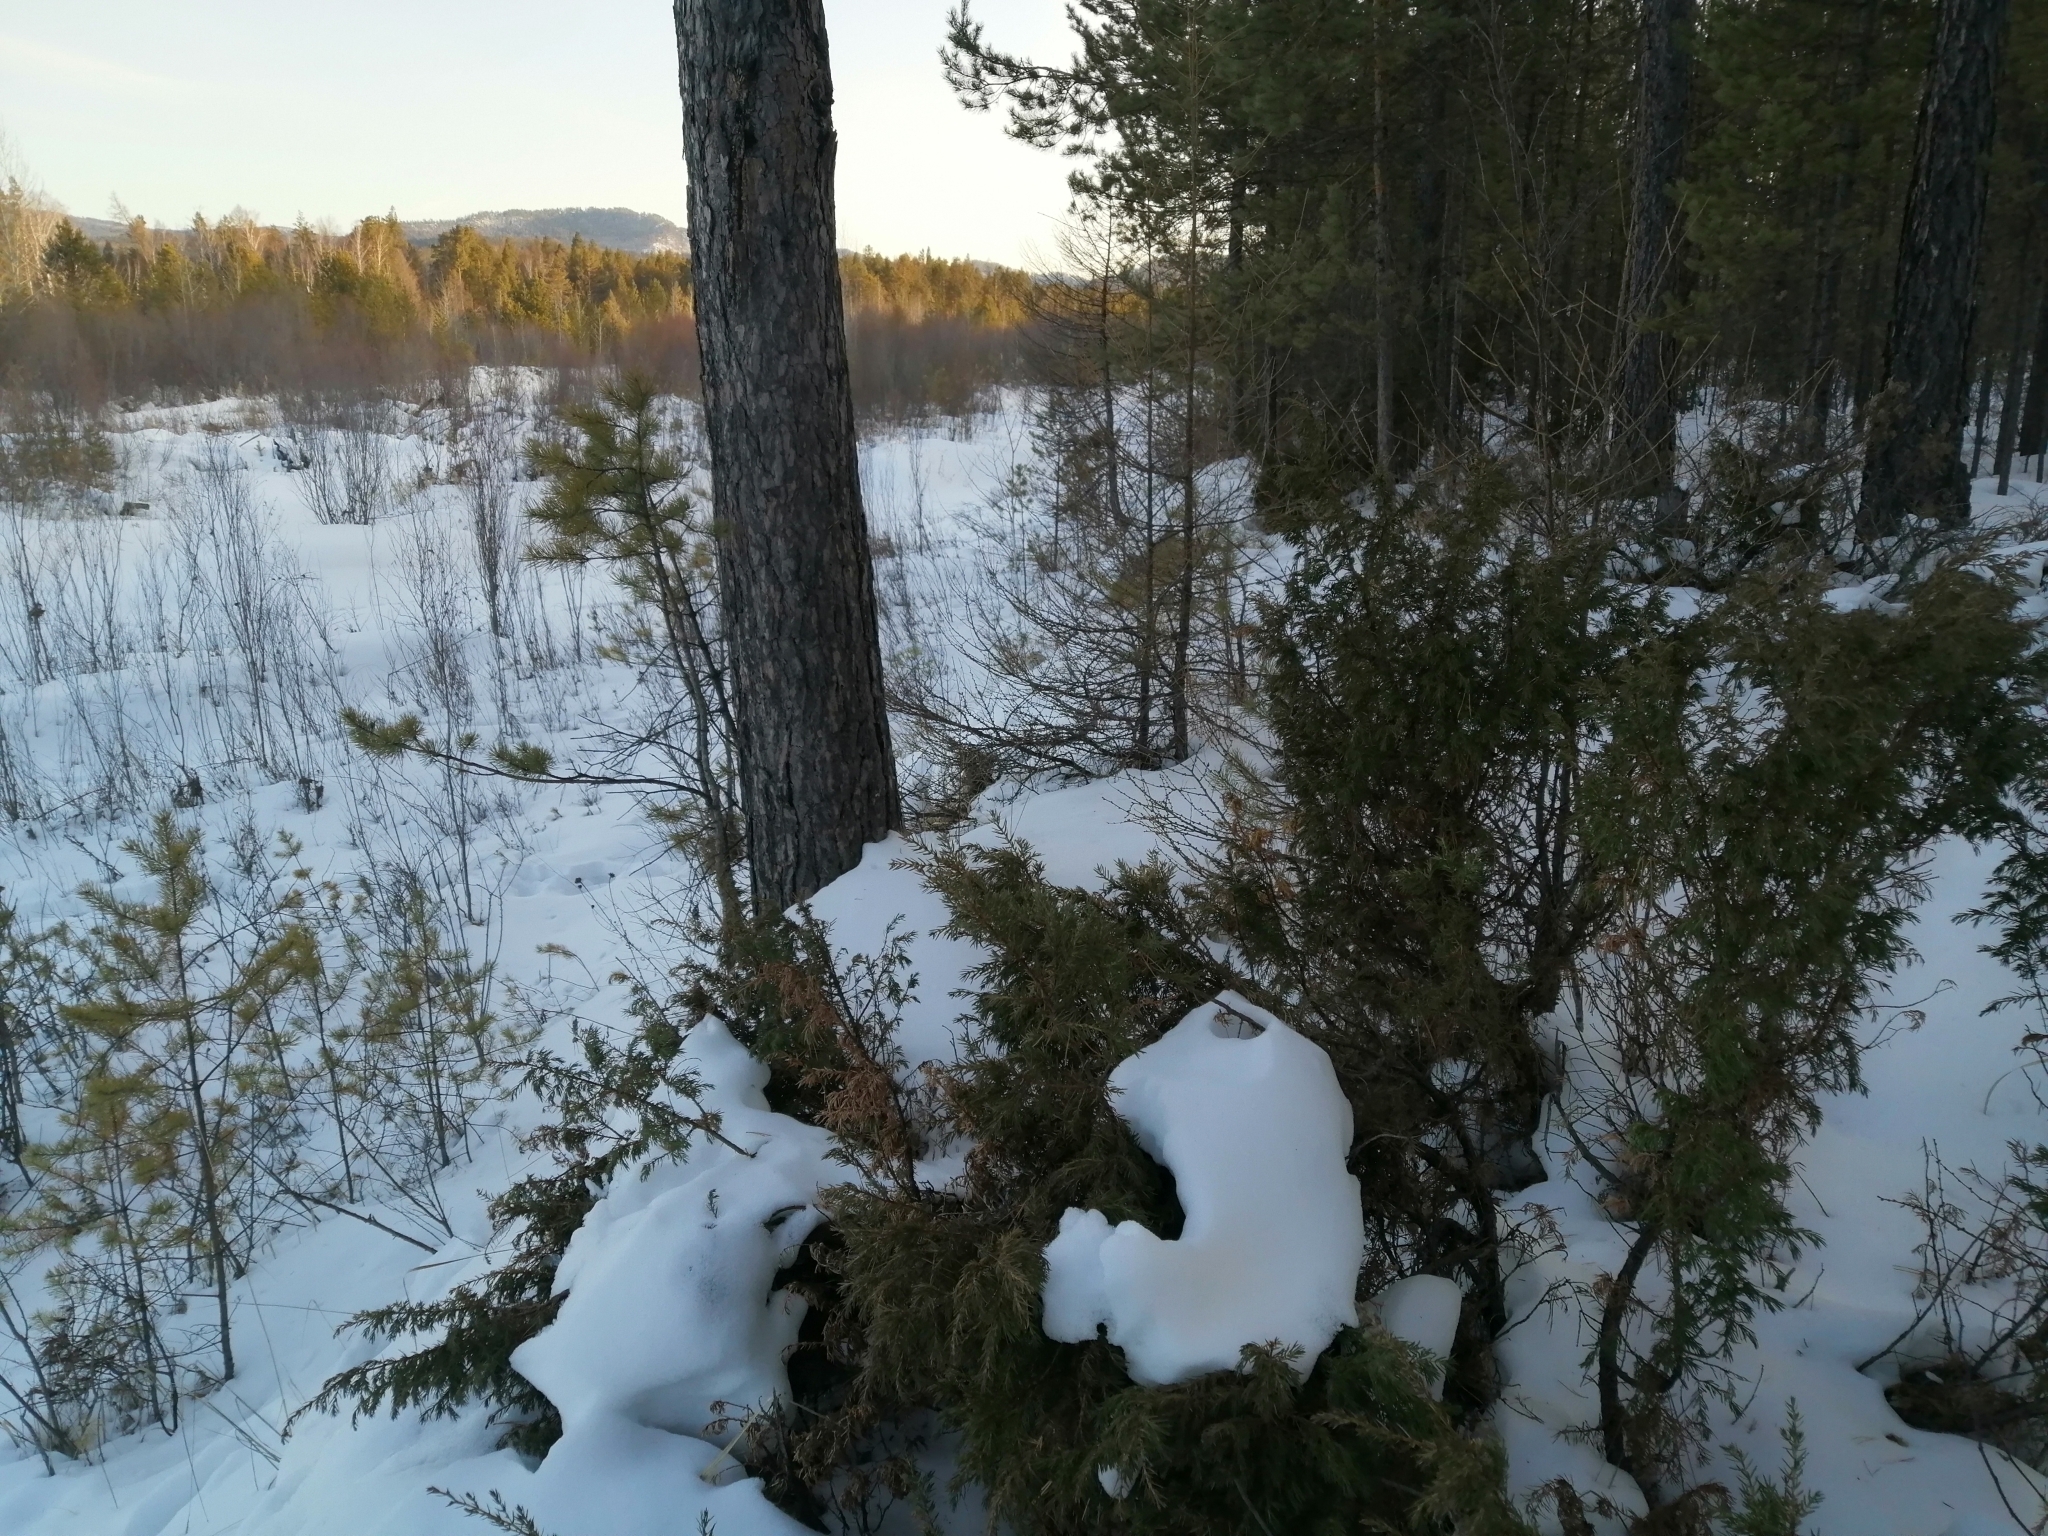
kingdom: Plantae
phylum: Tracheophyta
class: Pinopsida
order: Pinales
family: Cupressaceae
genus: Juniperus
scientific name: Juniperus communis
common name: Common juniper
